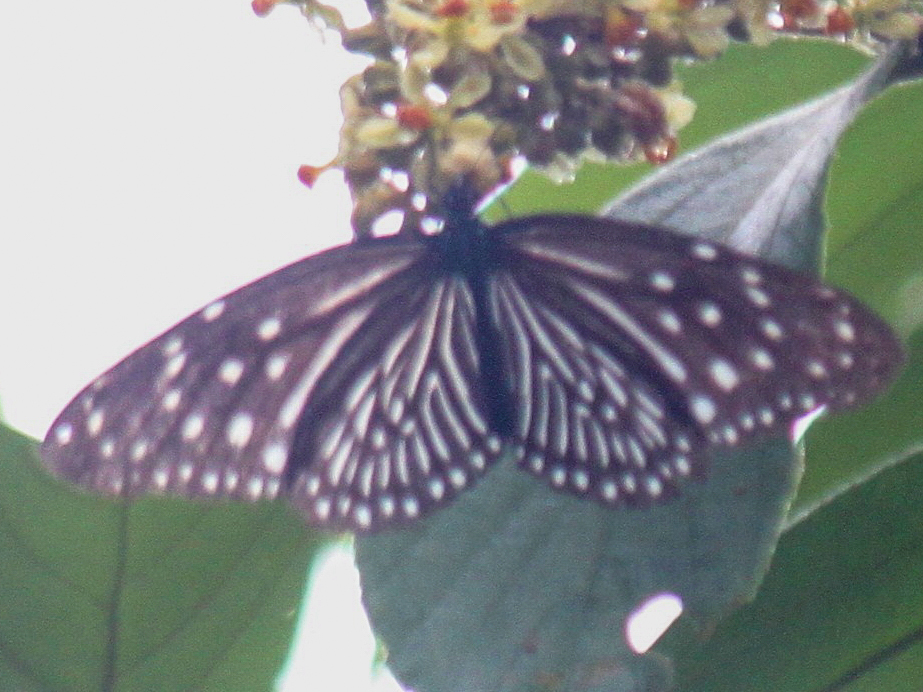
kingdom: Animalia
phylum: Arthropoda
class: Insecta
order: Lepidoptera
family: Nymphalidae
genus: Euploea
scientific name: Euploea mulciber
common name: Striped blue crow butterfly
